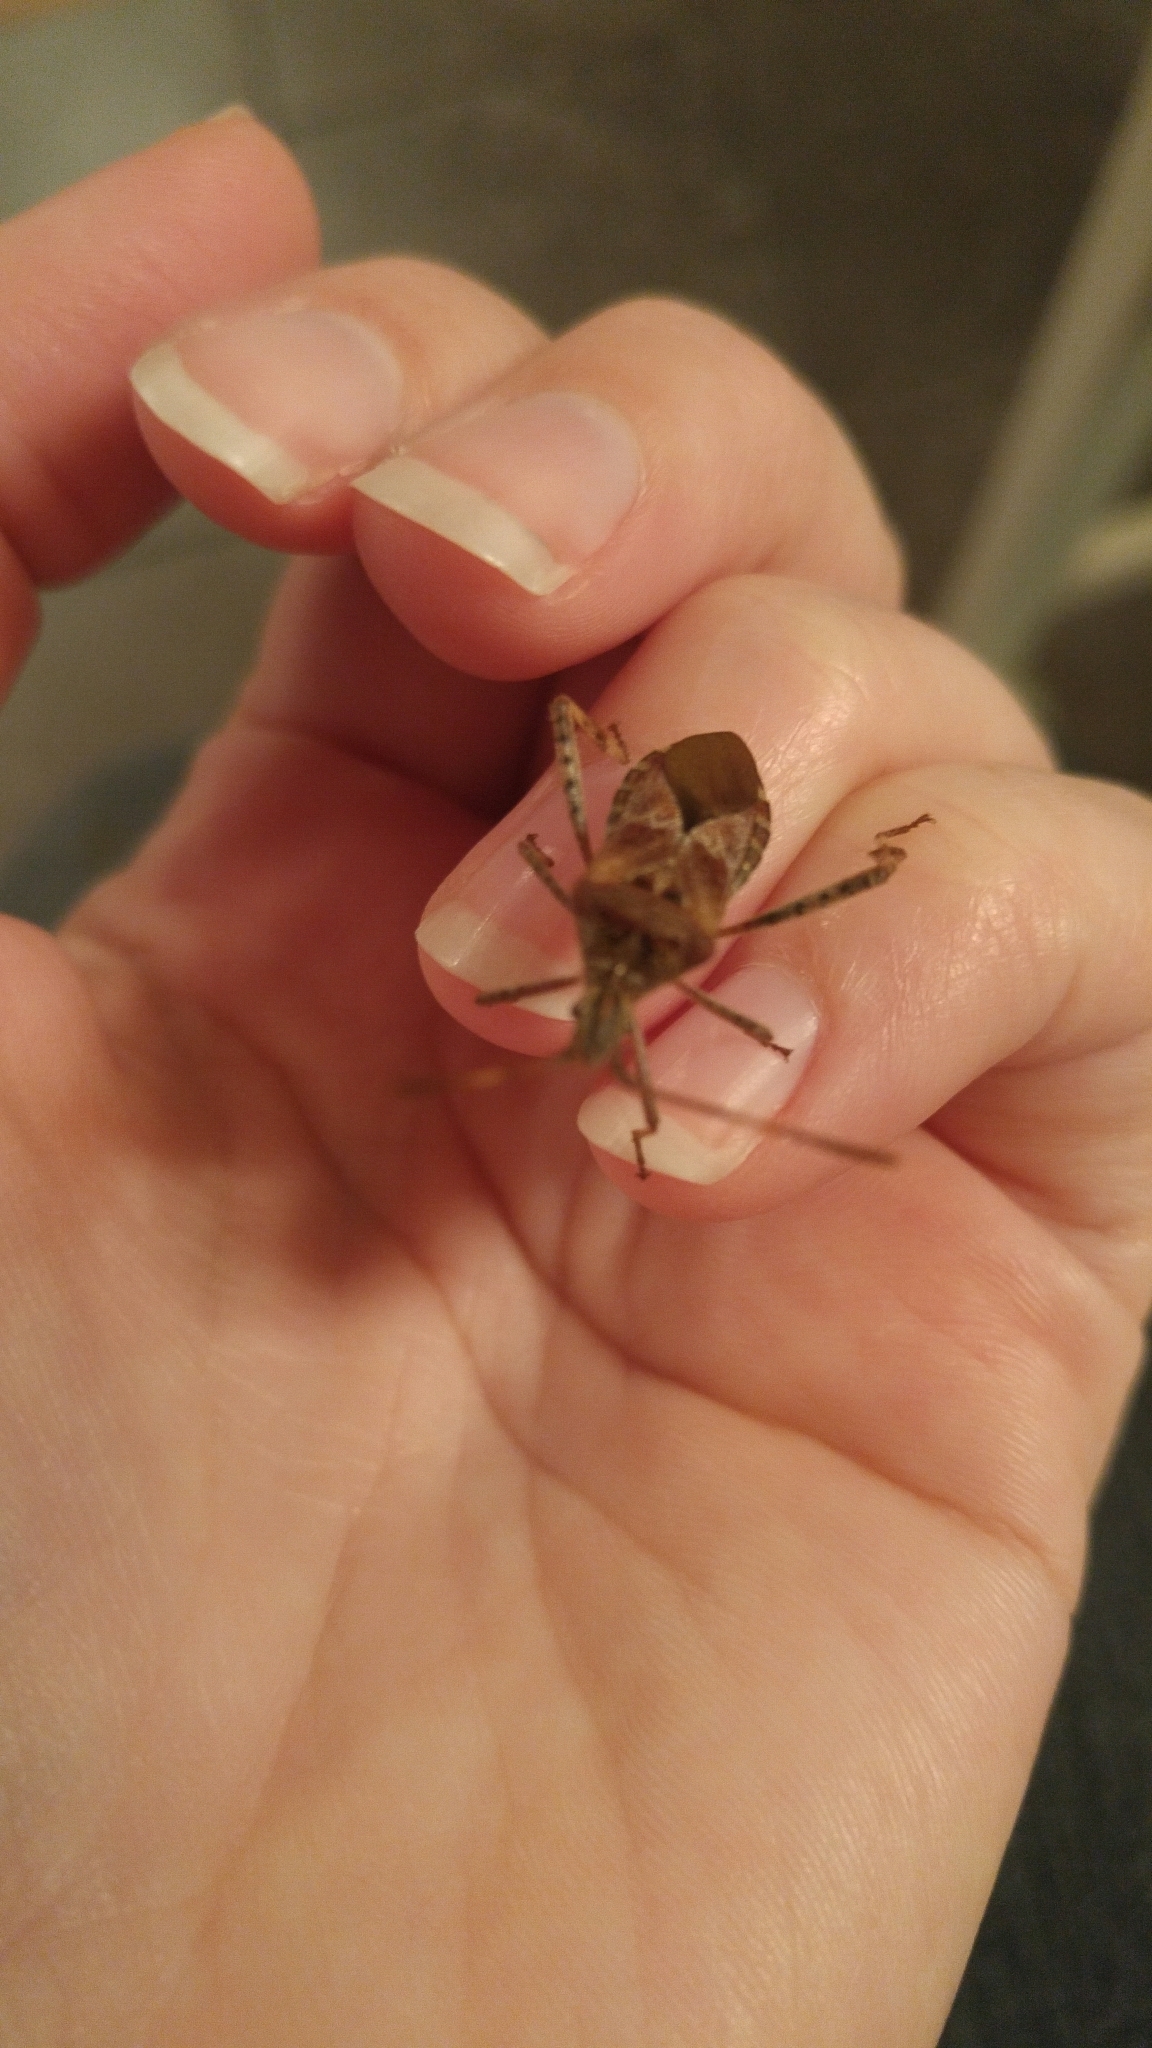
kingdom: Animalia
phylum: Arthropoda
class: Insecta
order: Hemiptera
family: Coreidae
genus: Leptoglossus
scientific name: Leptoglossus occidentalis
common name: Western conifer-seed bug
